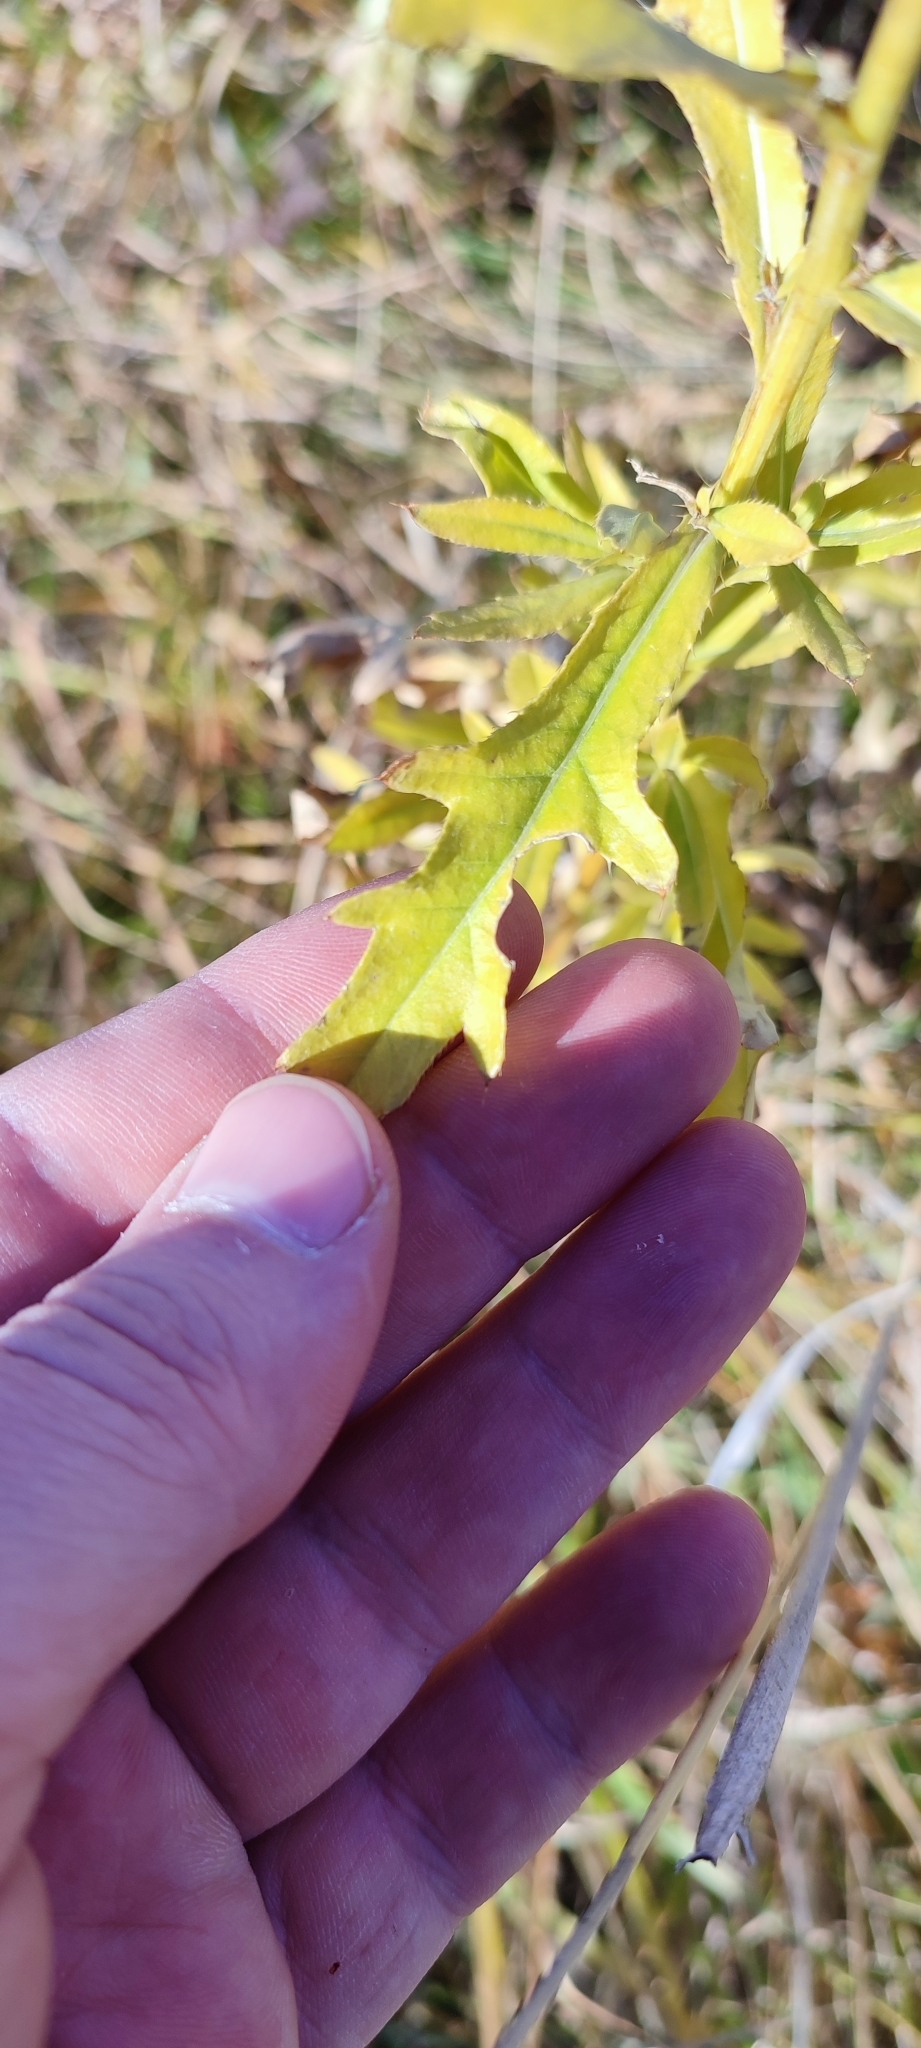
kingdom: Plantae
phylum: Tracheophyta
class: Magnoliopsida
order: Asterales
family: Asteraceae
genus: Cirsium
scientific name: Cirsium arvense
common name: Creeping thistle
